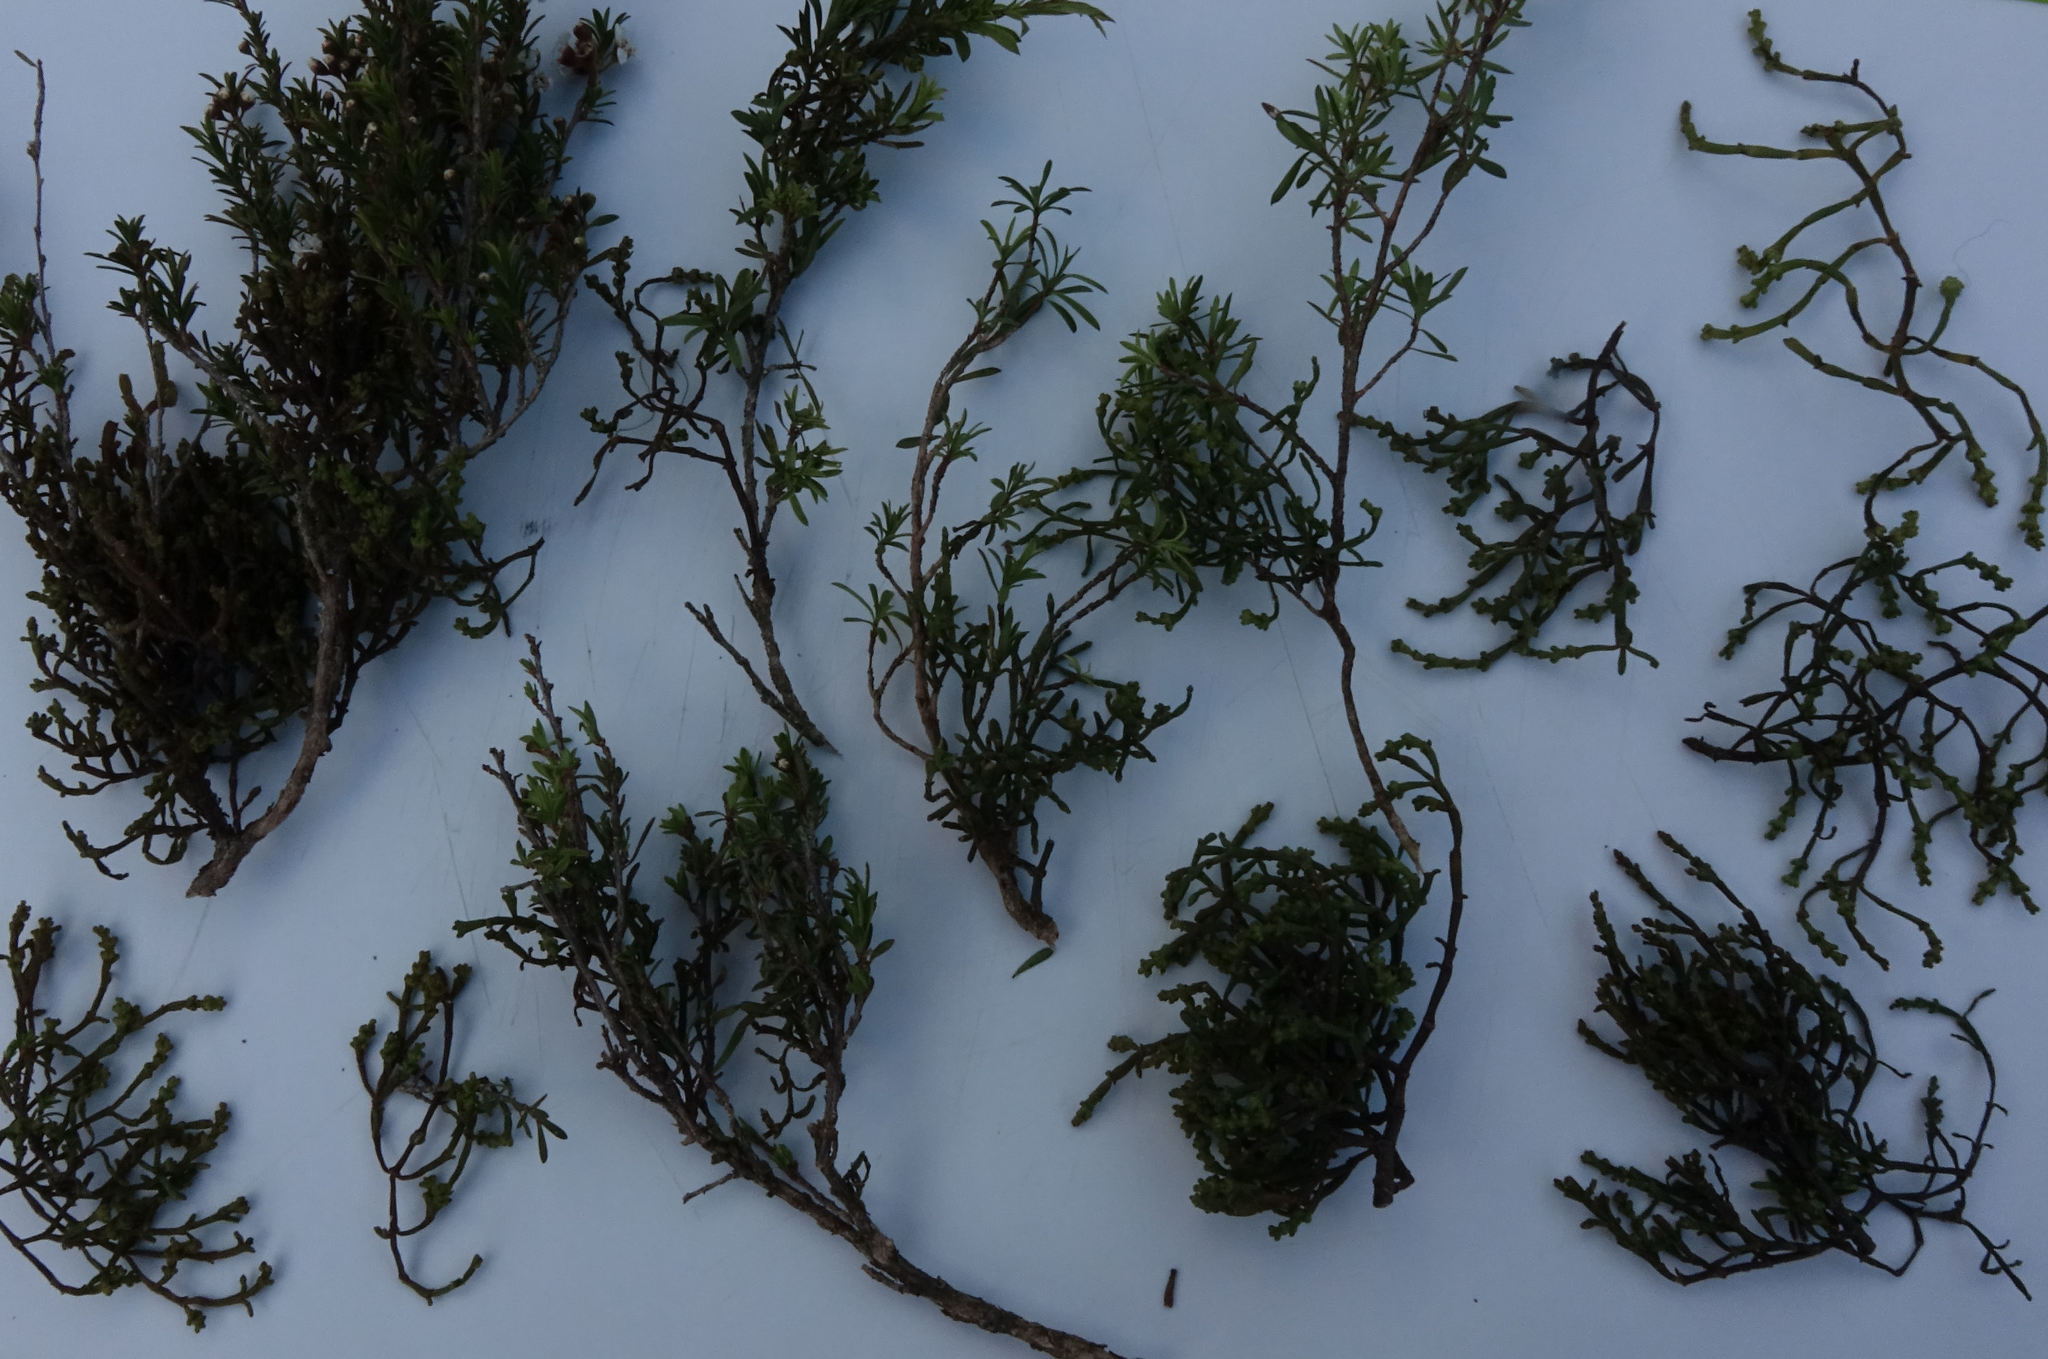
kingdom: Plantae
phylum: Tracheophyta
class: Magnoliopsida
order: Santalales
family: Viscaceae
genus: Korthalsella
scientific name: Korthalsella salicornioides
